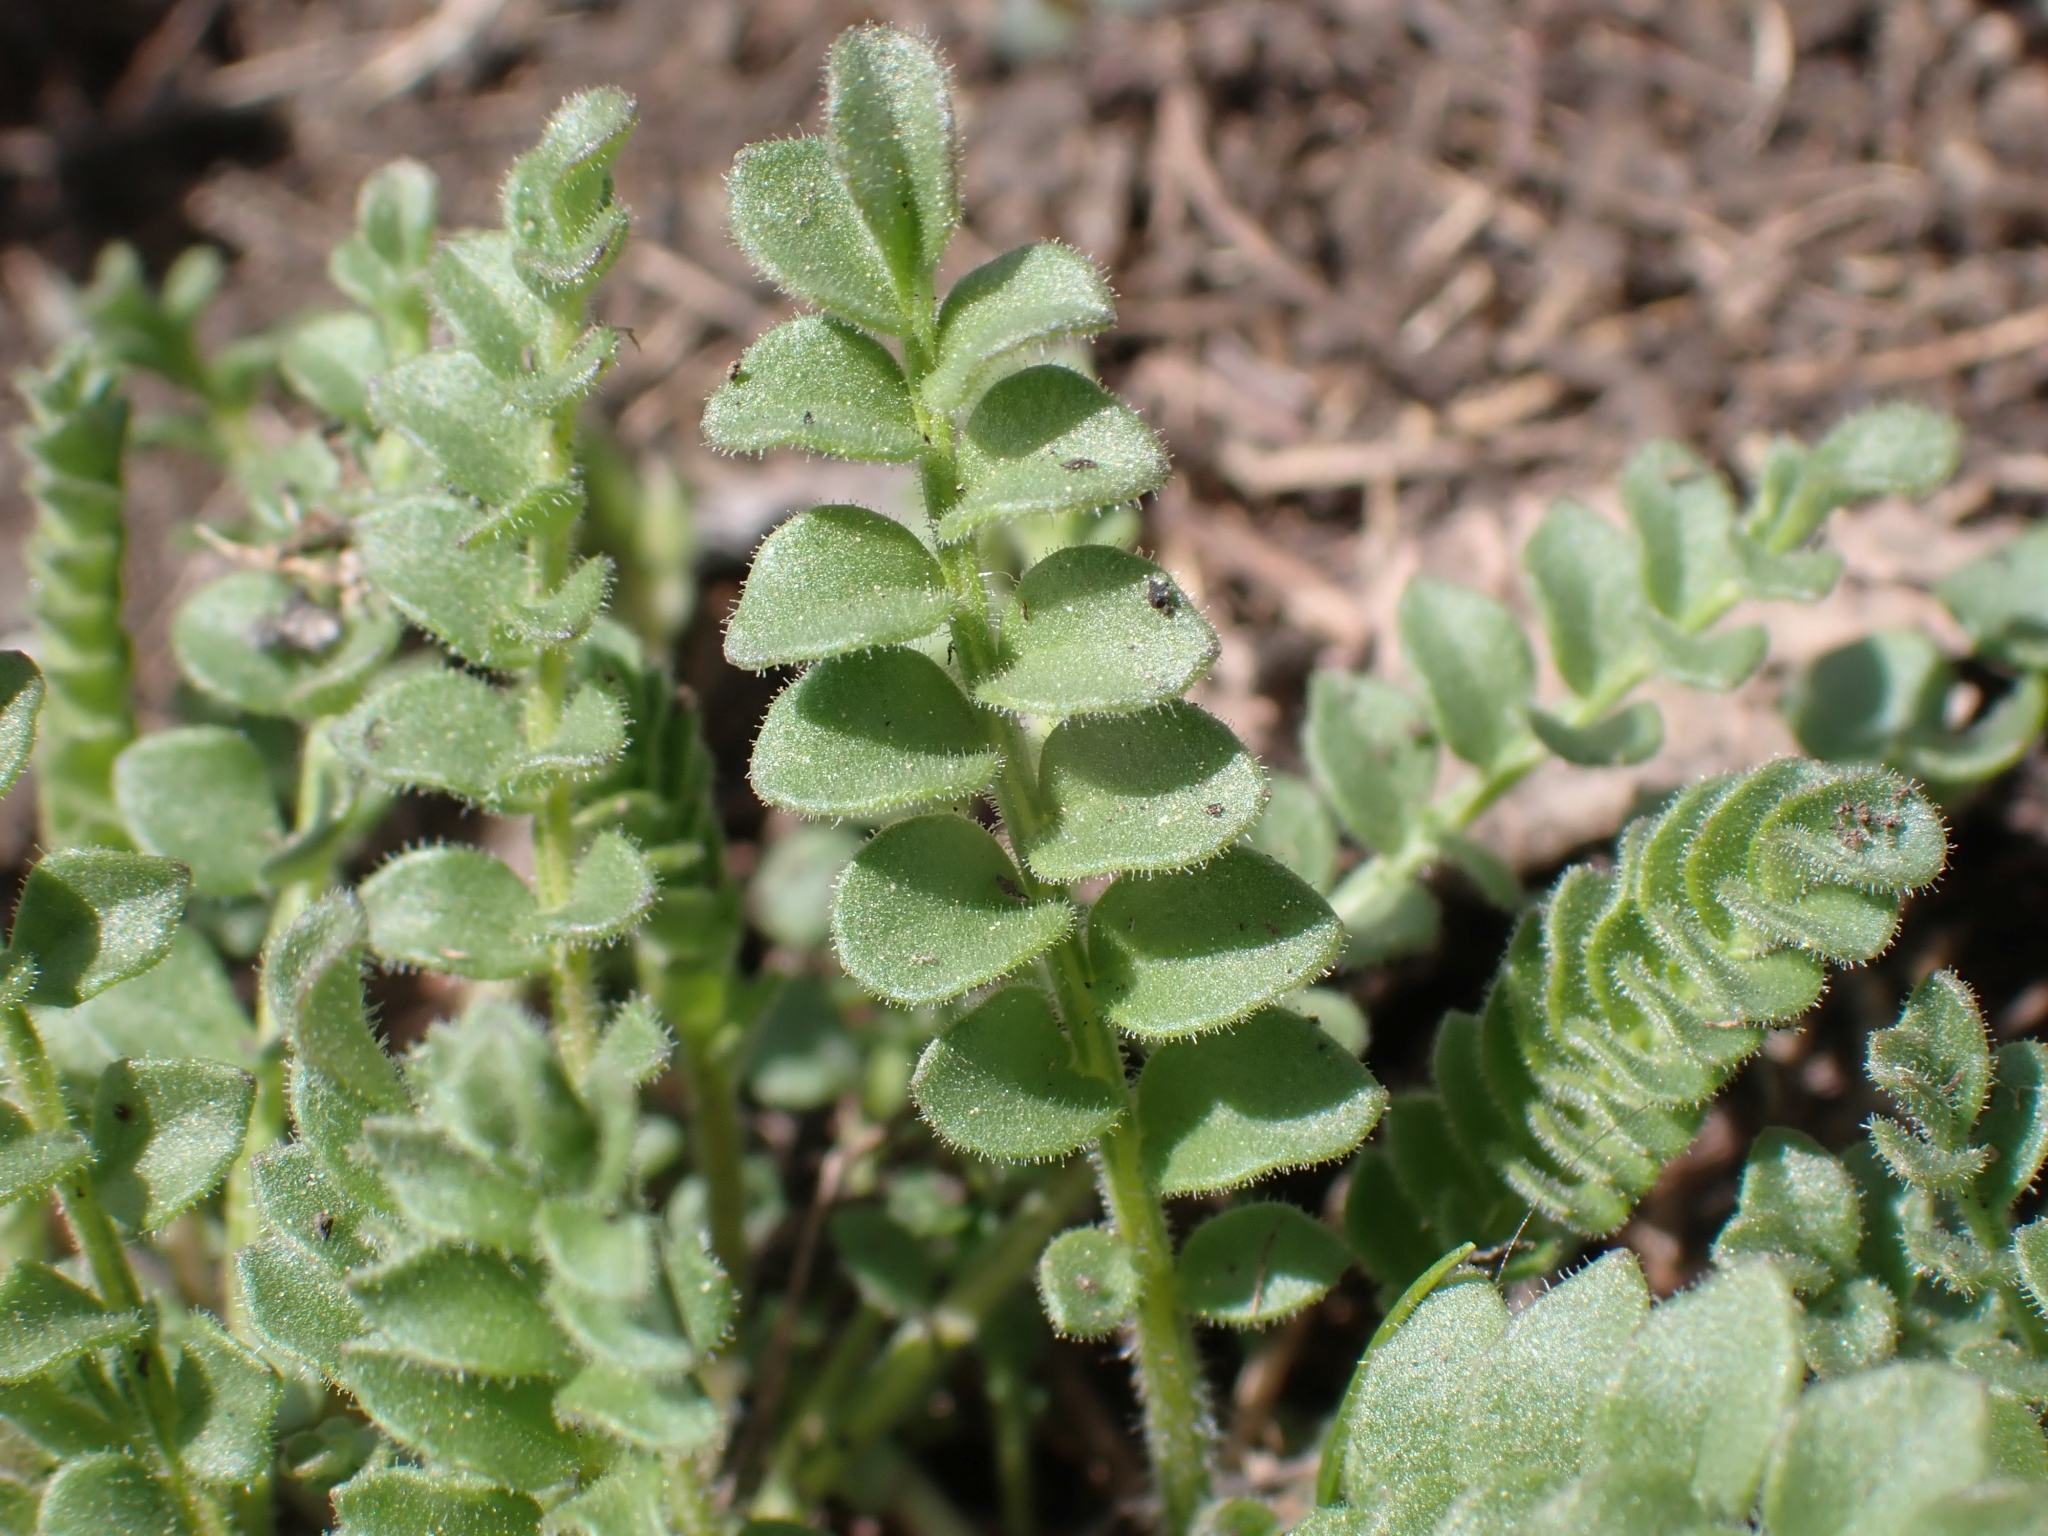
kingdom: Plantae
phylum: Tracheophyta
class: Magnoliopsida
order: Ericales
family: Polemoniaceae
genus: Polemonium
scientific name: Polemonium pulcherrimum
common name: Short jacob's-ladder
